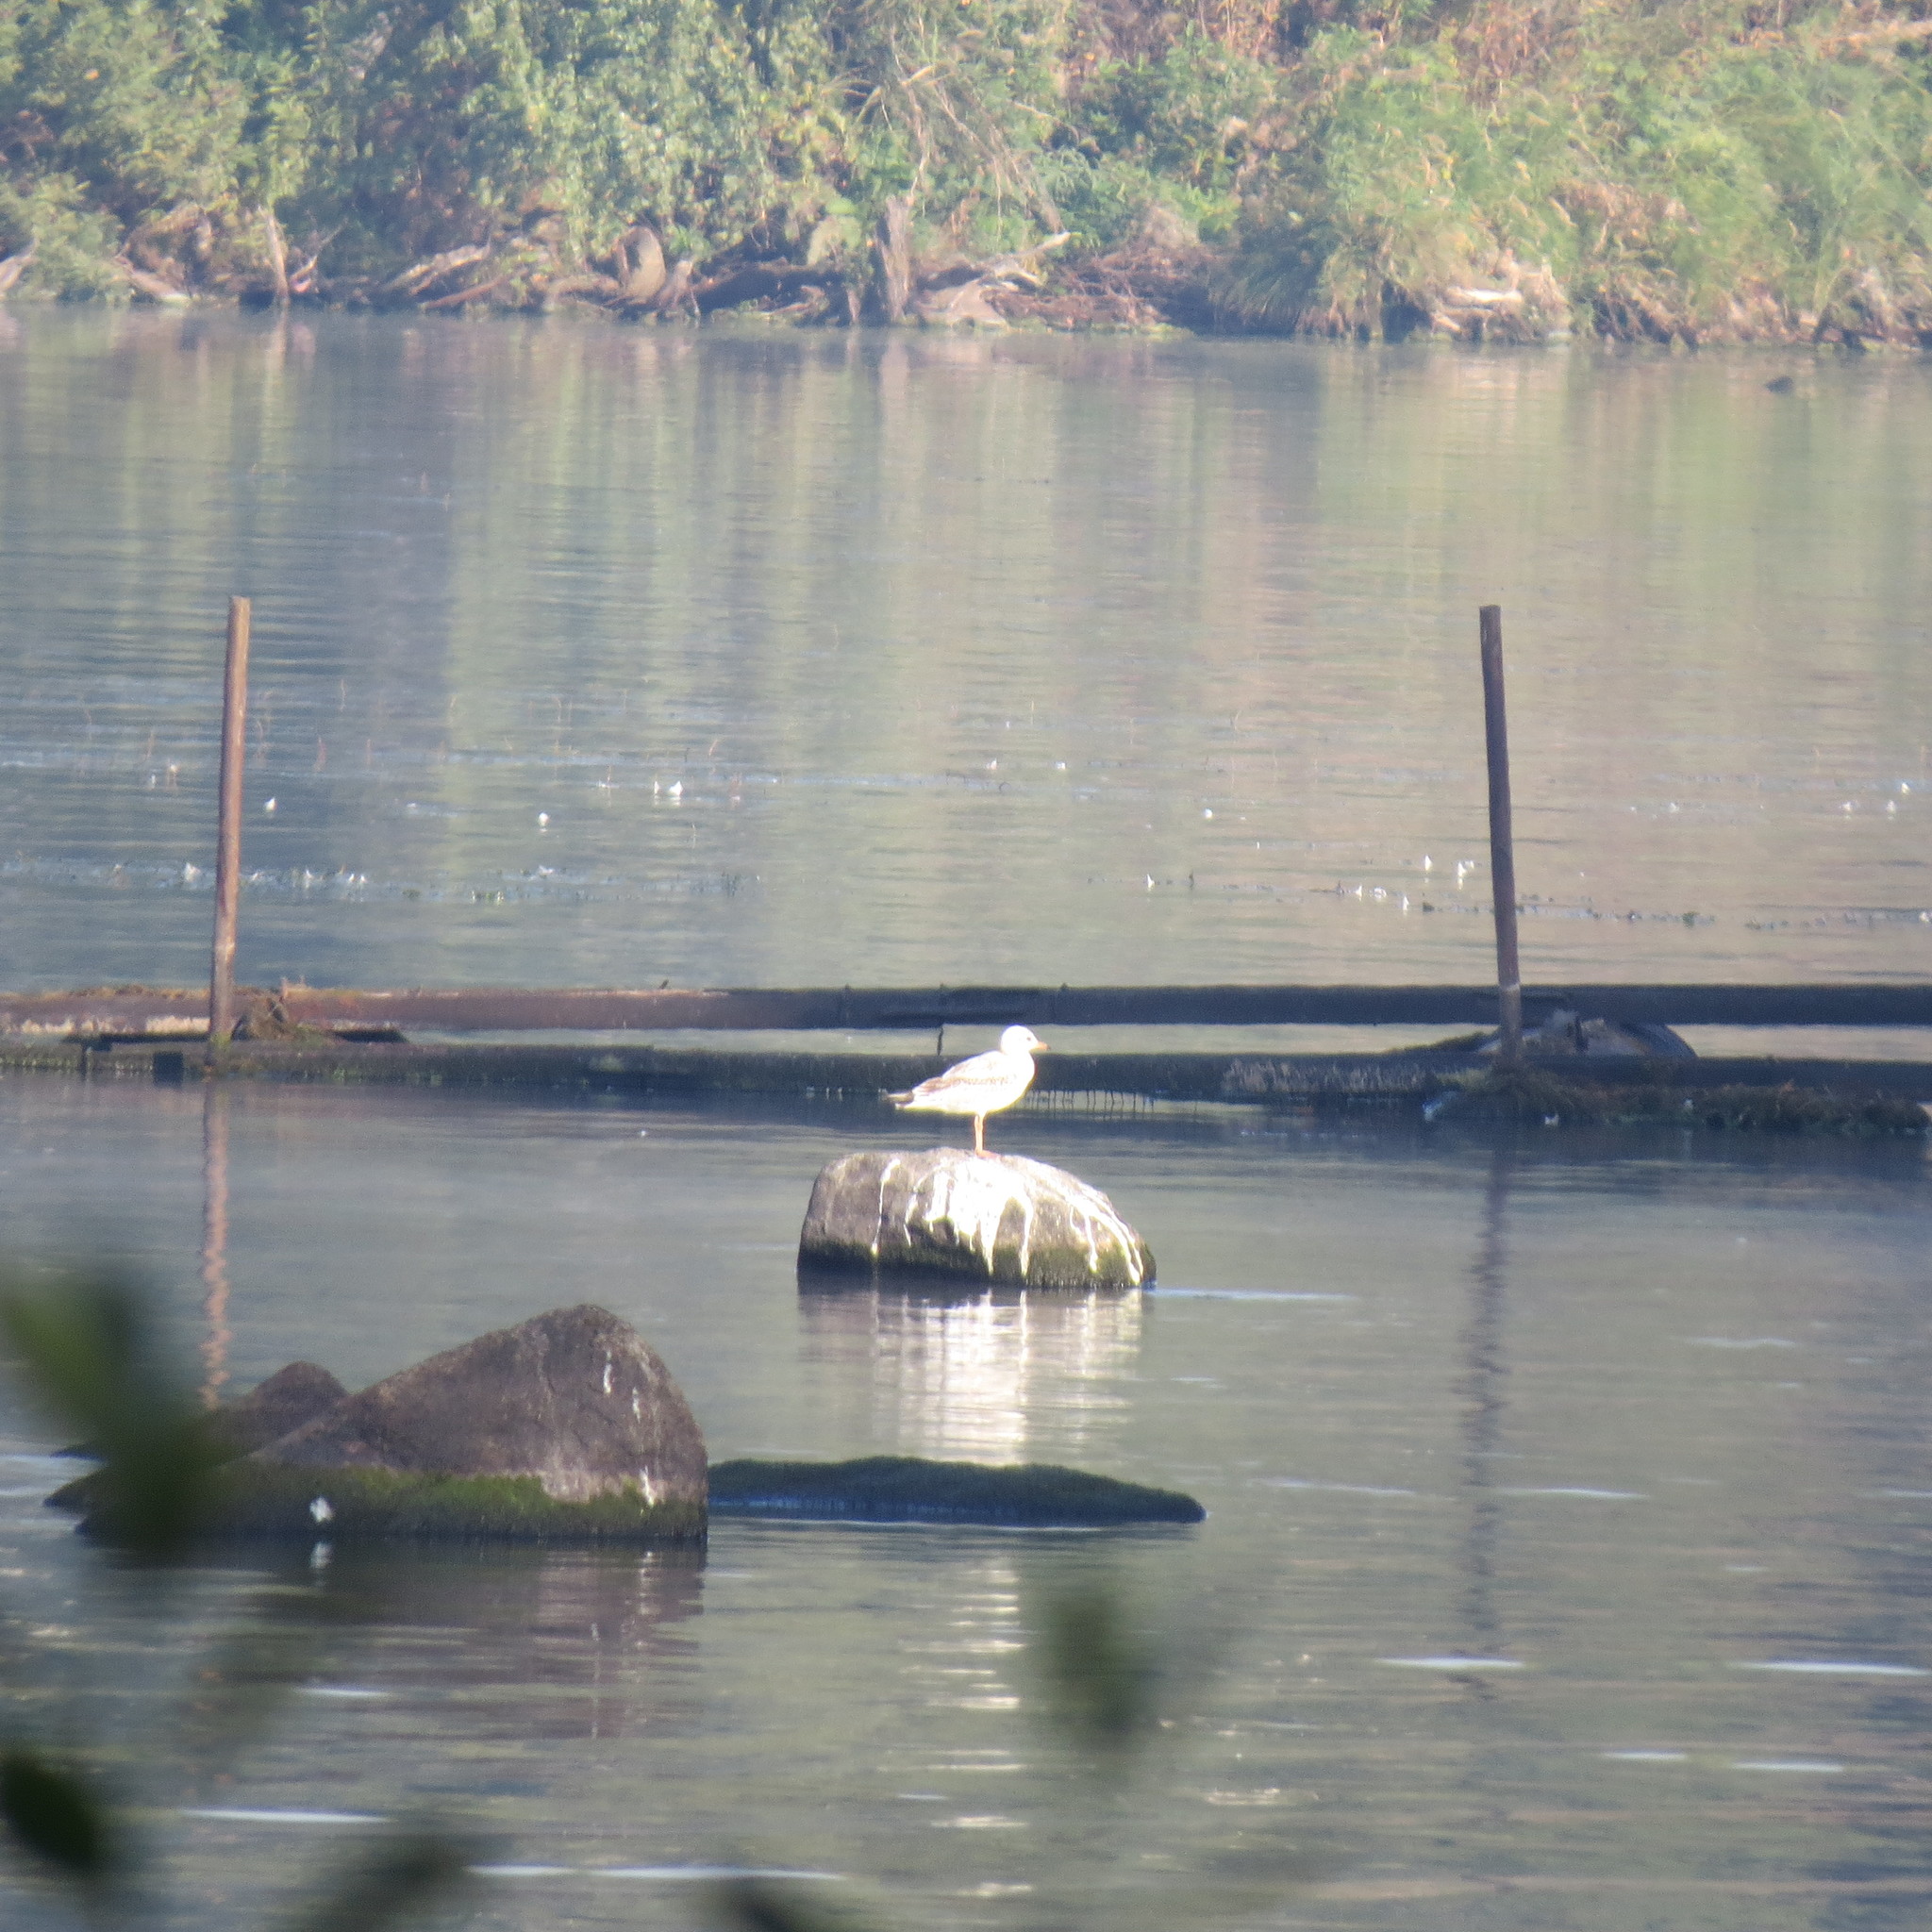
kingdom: Animalia
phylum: Chordata
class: Aves
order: Charadriiformes
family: Laridae
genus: Chroicocephalus
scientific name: Chroicocephalus ridibundus
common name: Black-headed gull
